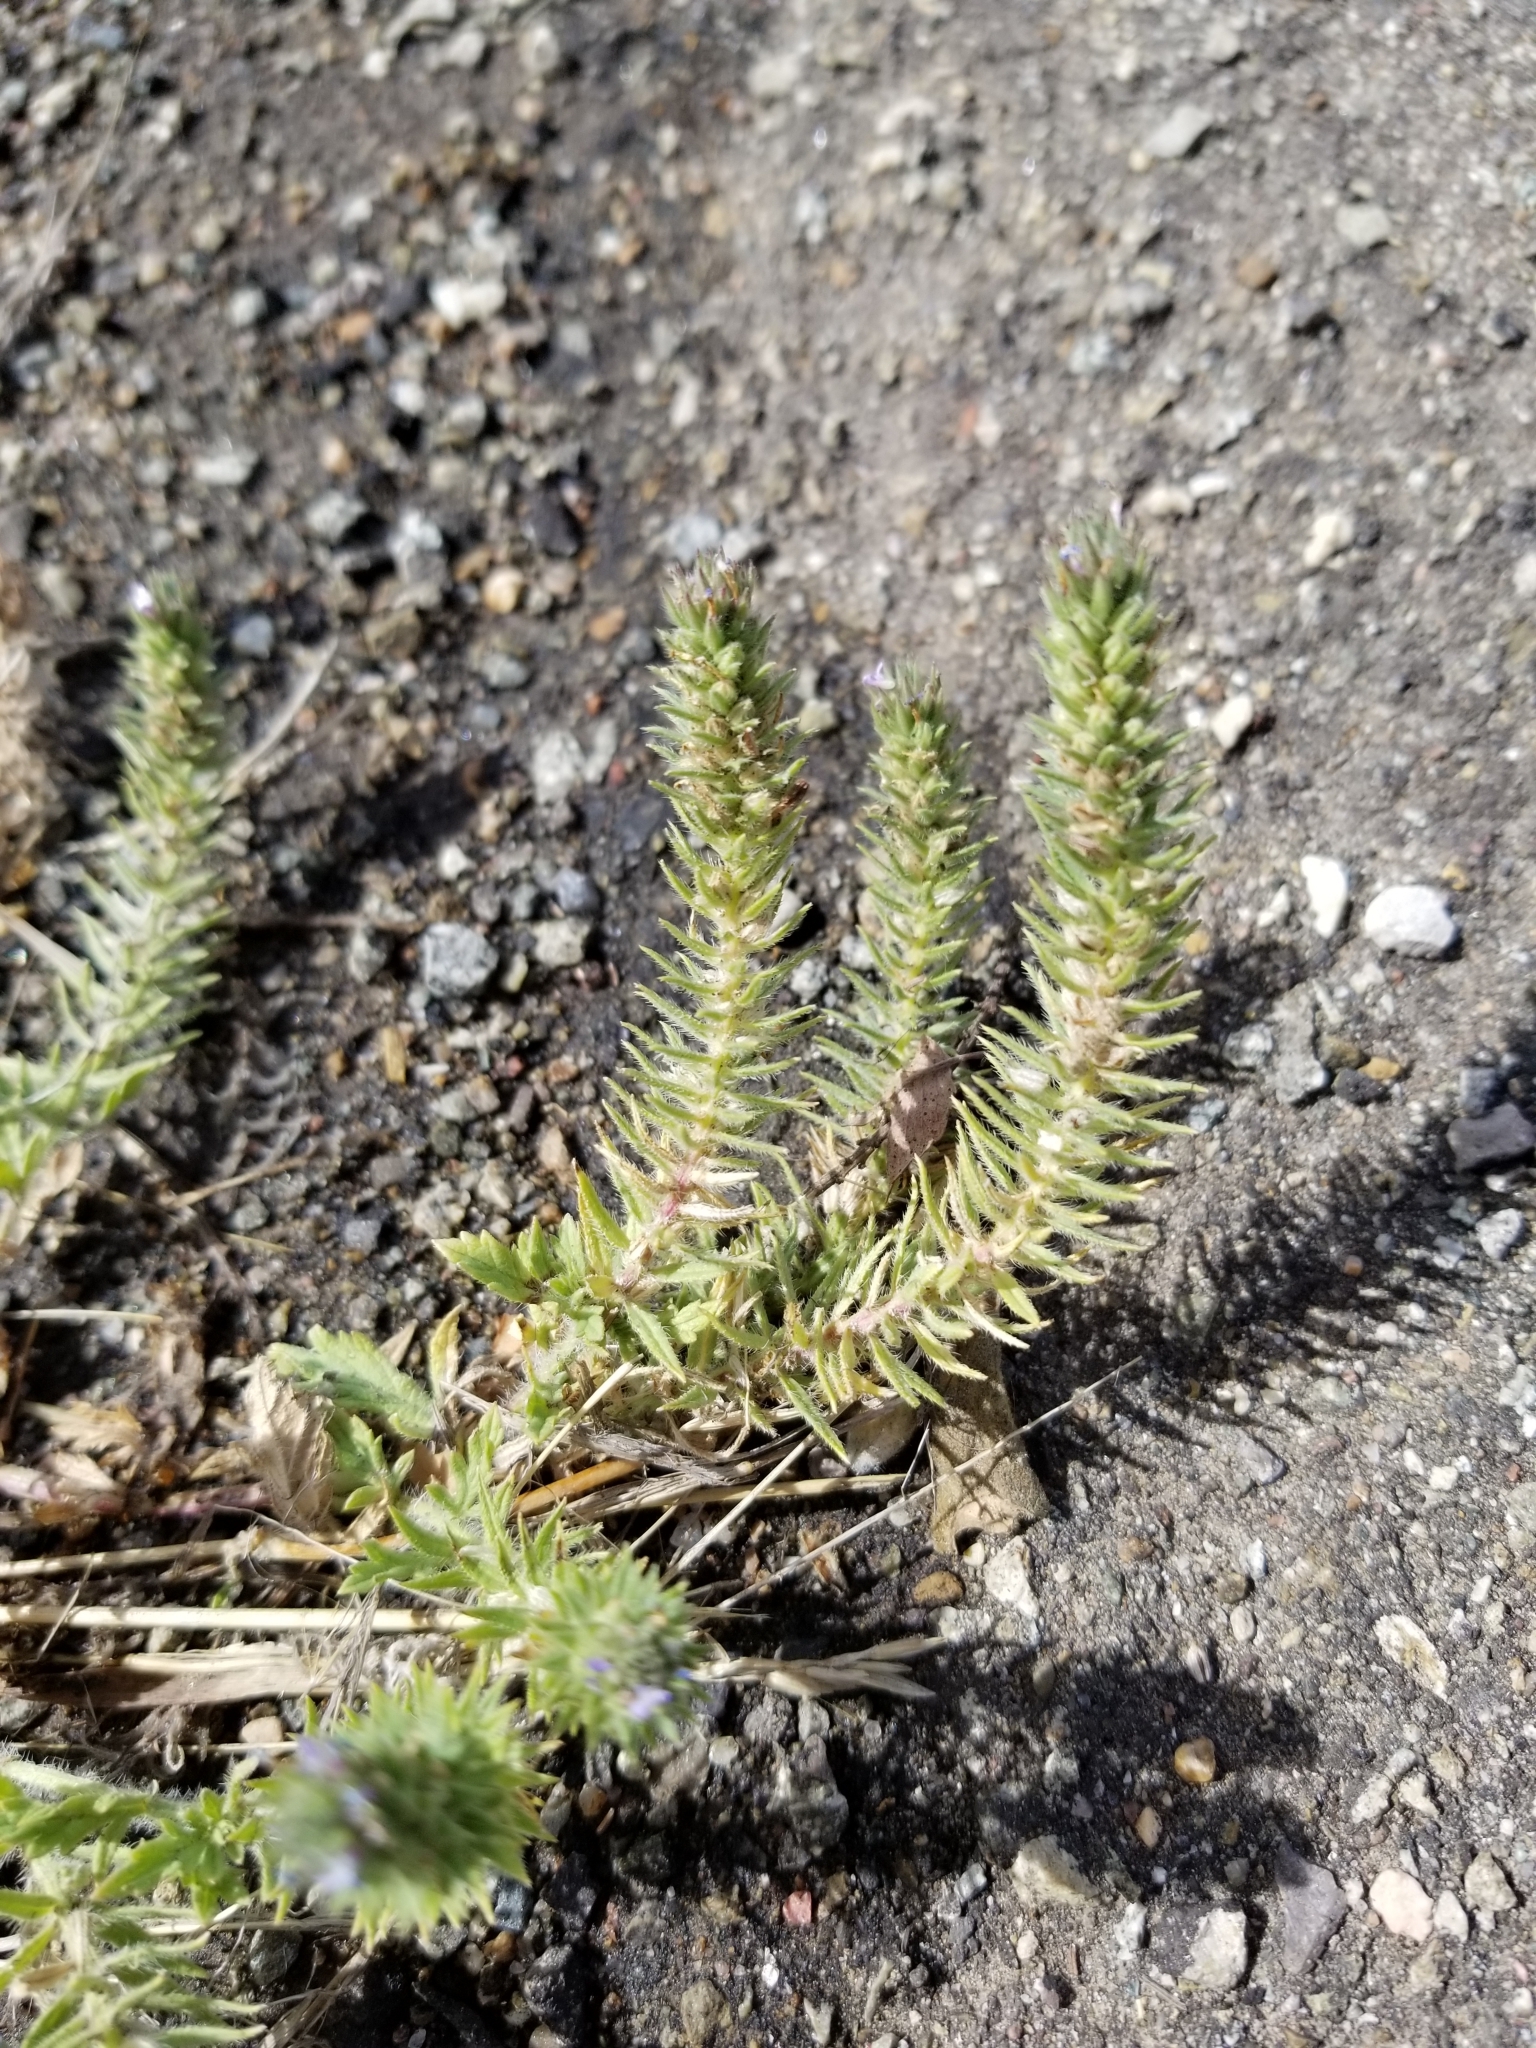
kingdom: Plantae
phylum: Tracheophyta
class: Magnoliopsida
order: Lamiales
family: Verbenaceae
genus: Verbena
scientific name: Verbena bracteata
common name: Bracted vervain
